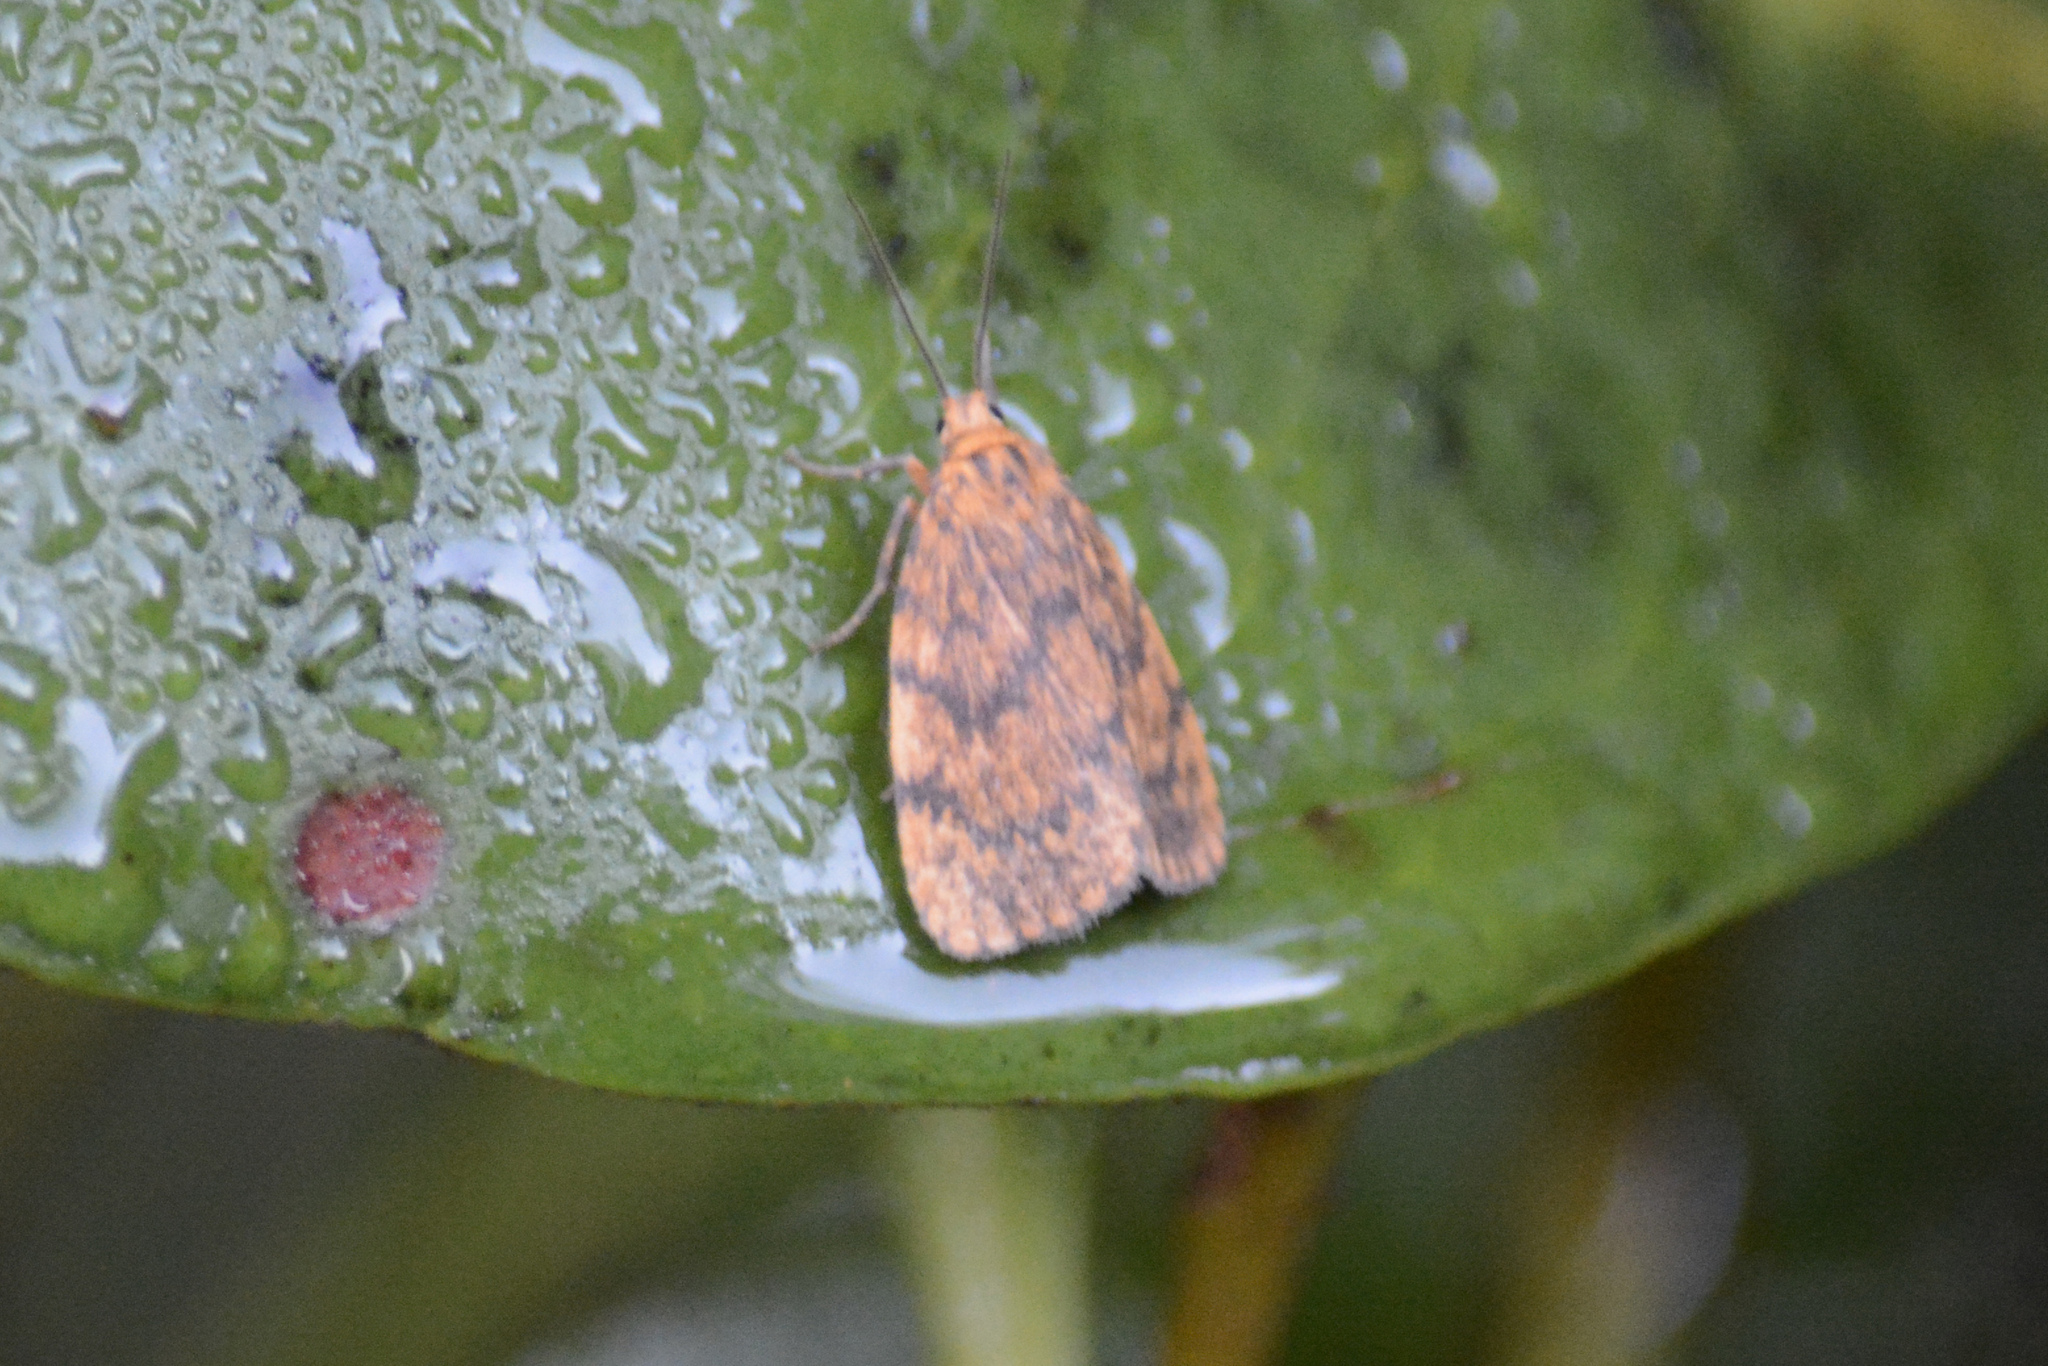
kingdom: Animalia
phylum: Arthropoda
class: Insecta
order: Lepidoptera
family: Erebidae
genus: Cyme
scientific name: Cyme structa
